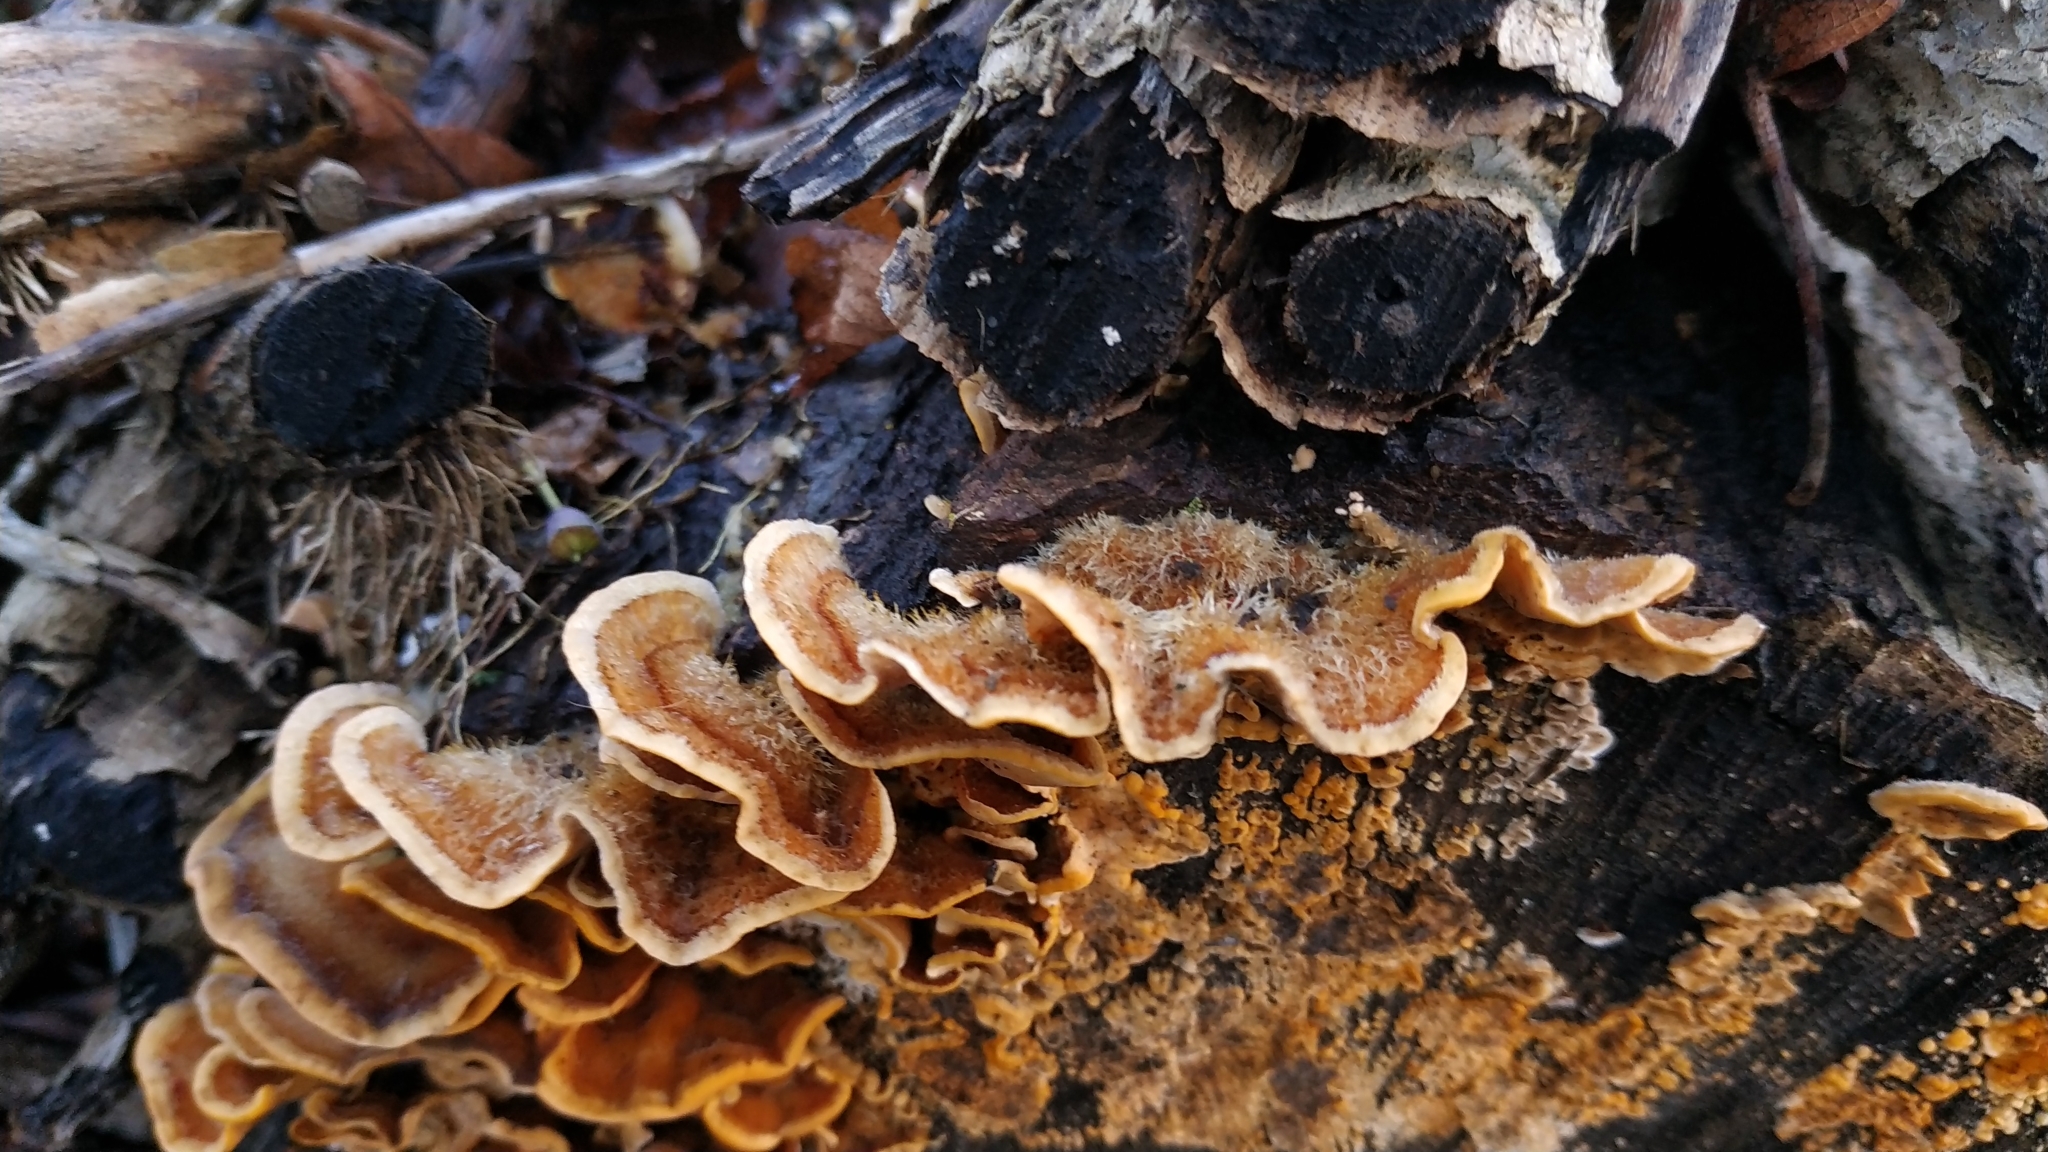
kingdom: Fungi
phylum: Basidiomycota
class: Agaricomycetes
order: Russulales
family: Stereaceae
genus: Stereum
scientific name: Stereum hirsutum
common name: Hairy curtain crust
